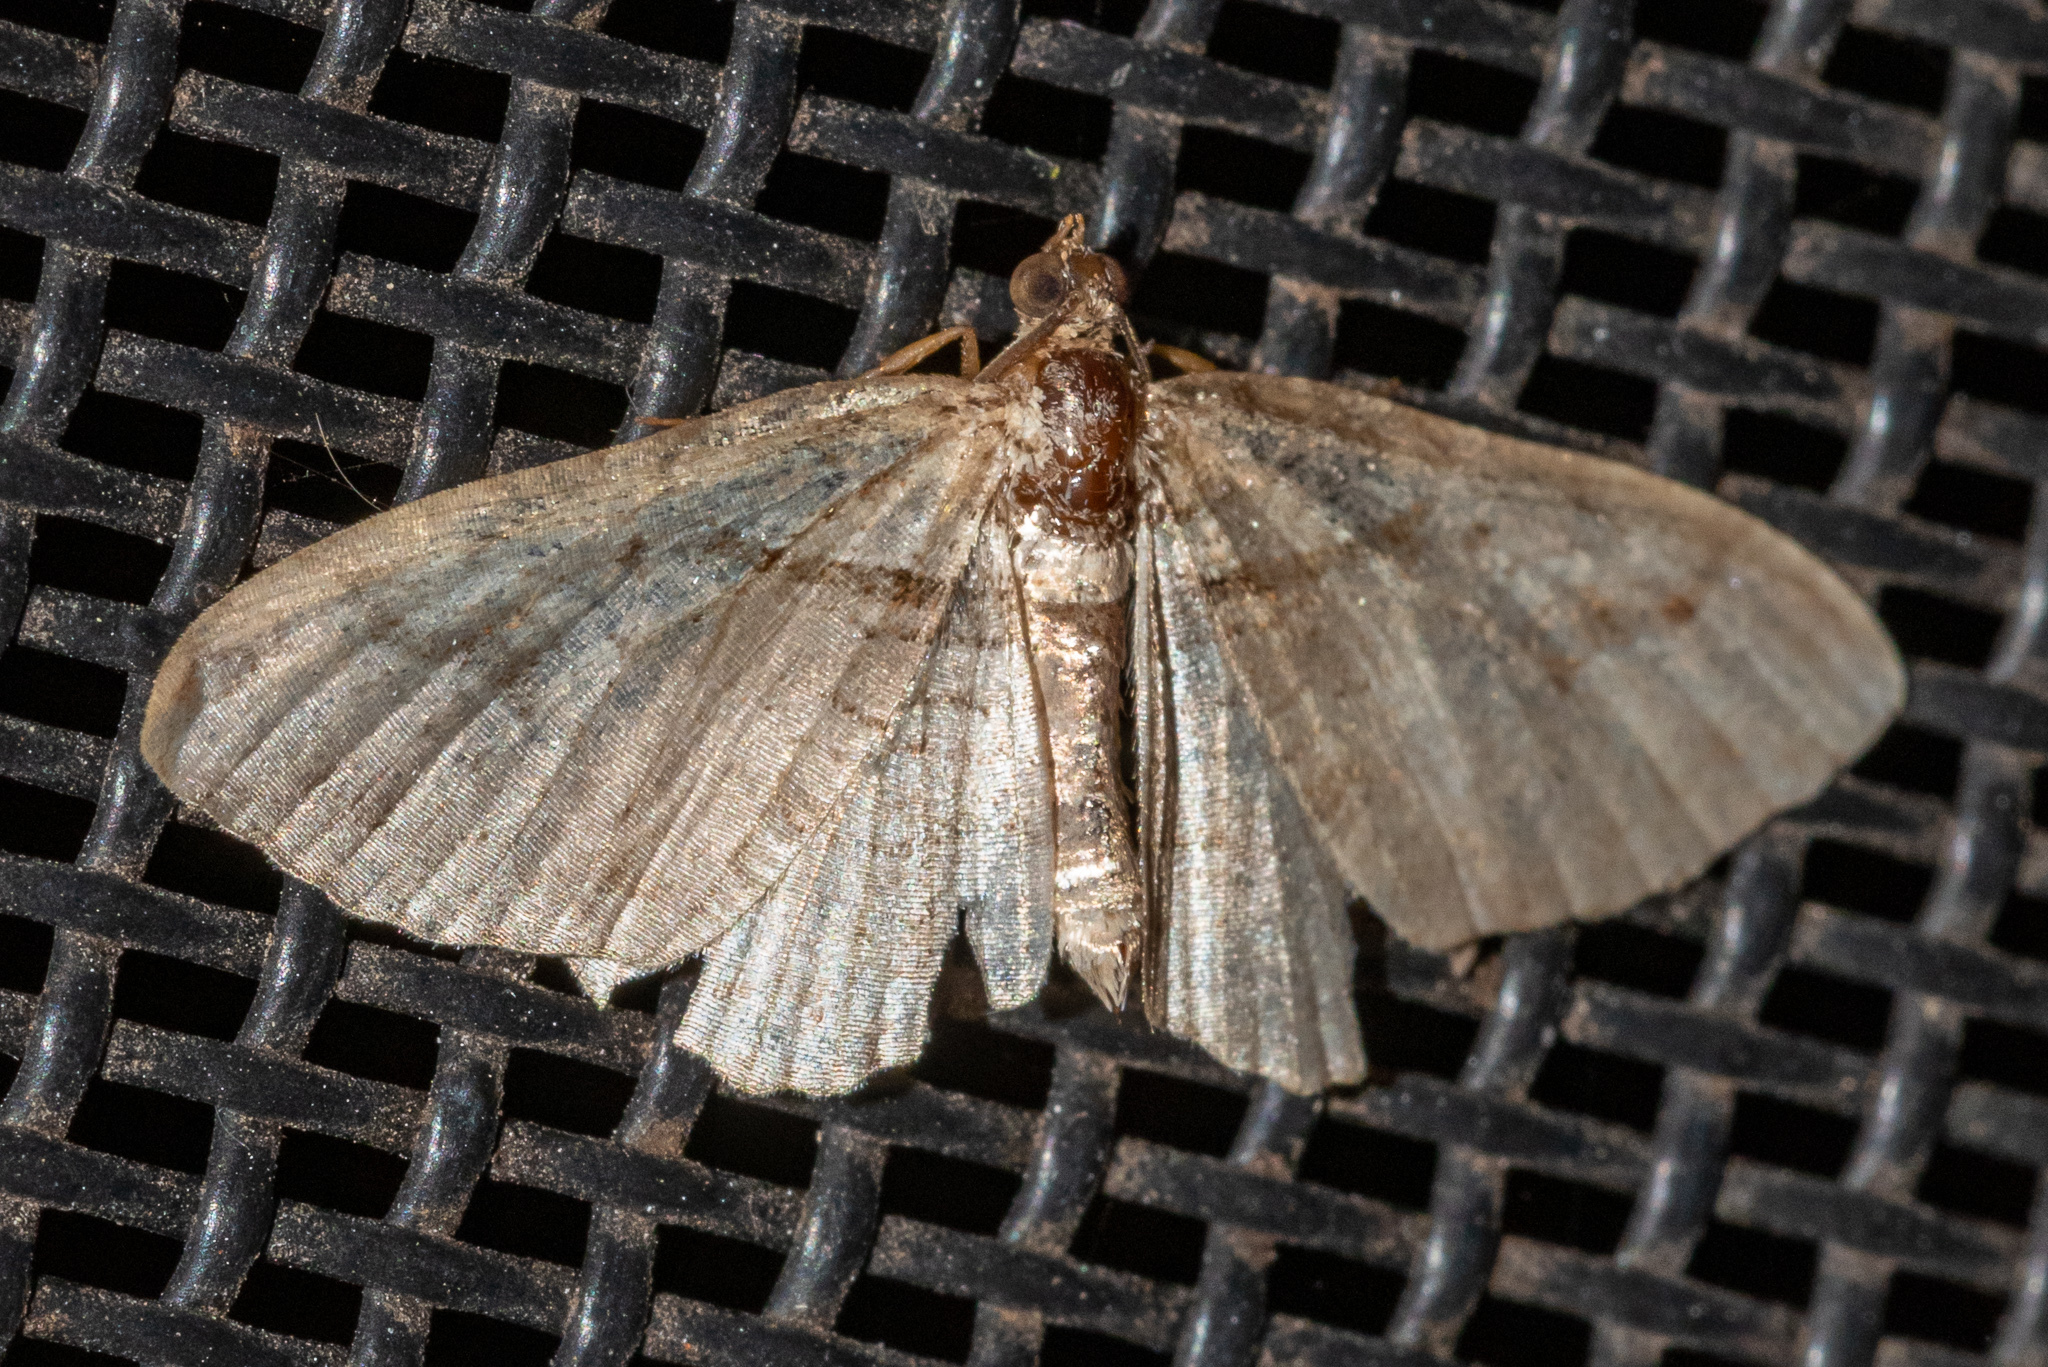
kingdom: Animalia
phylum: Arthropoda
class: Insecta
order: Lepidoptera
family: Geometridae
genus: Costaconvexa
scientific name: Costaconvexa centrostrigaria
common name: Bent-line carpet
